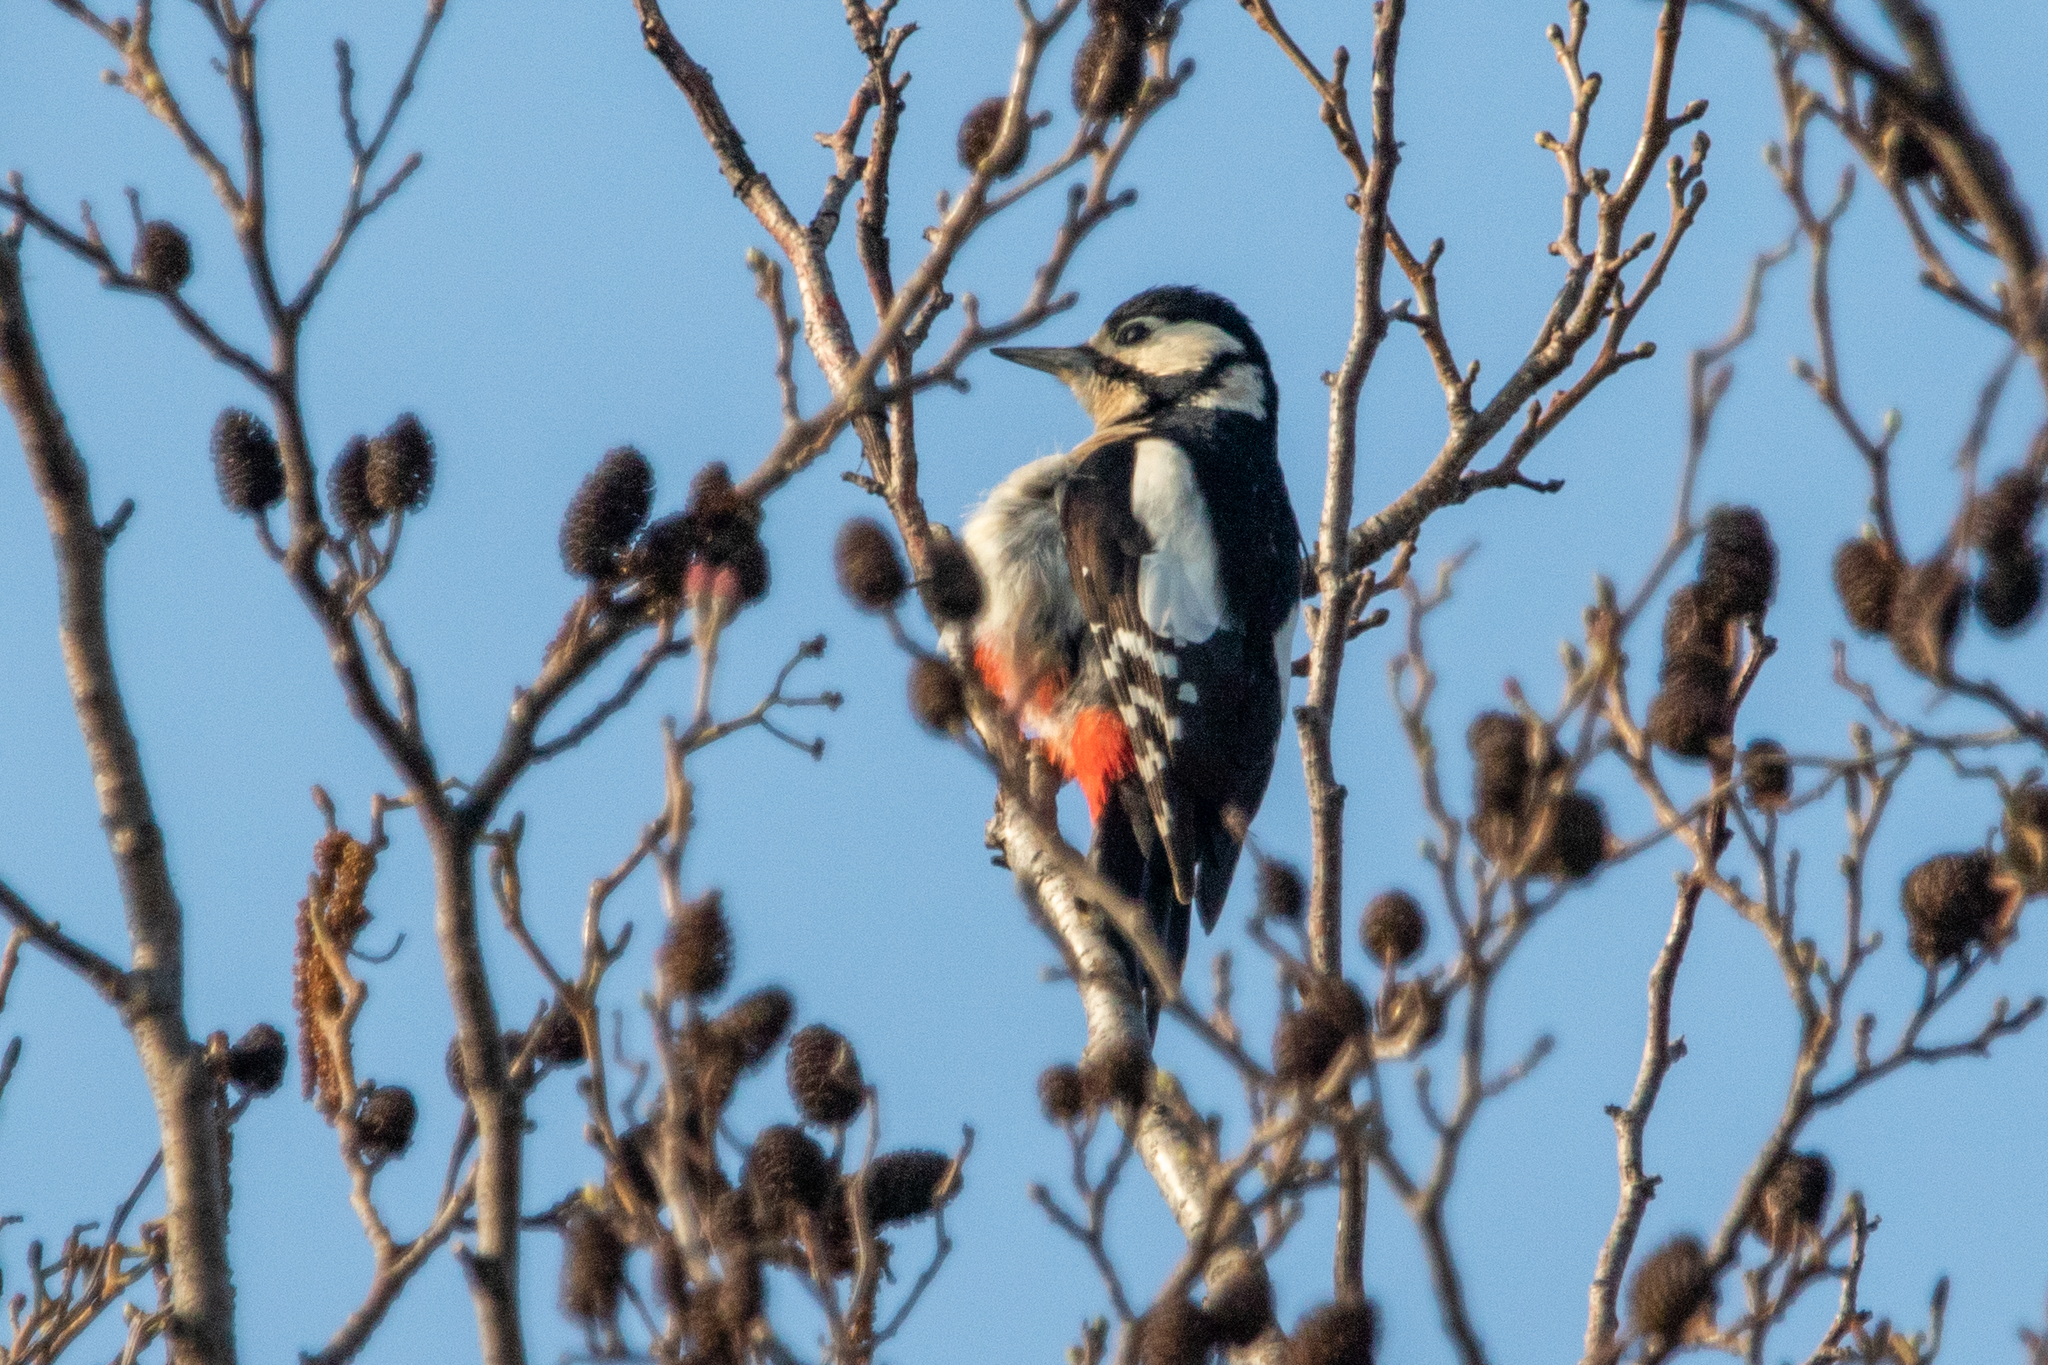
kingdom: Animalia
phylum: Chordata
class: Aves
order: Piciformes
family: Picidae
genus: Dendrocopos
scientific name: Dendrocopos major
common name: Great spotted woodpecker
